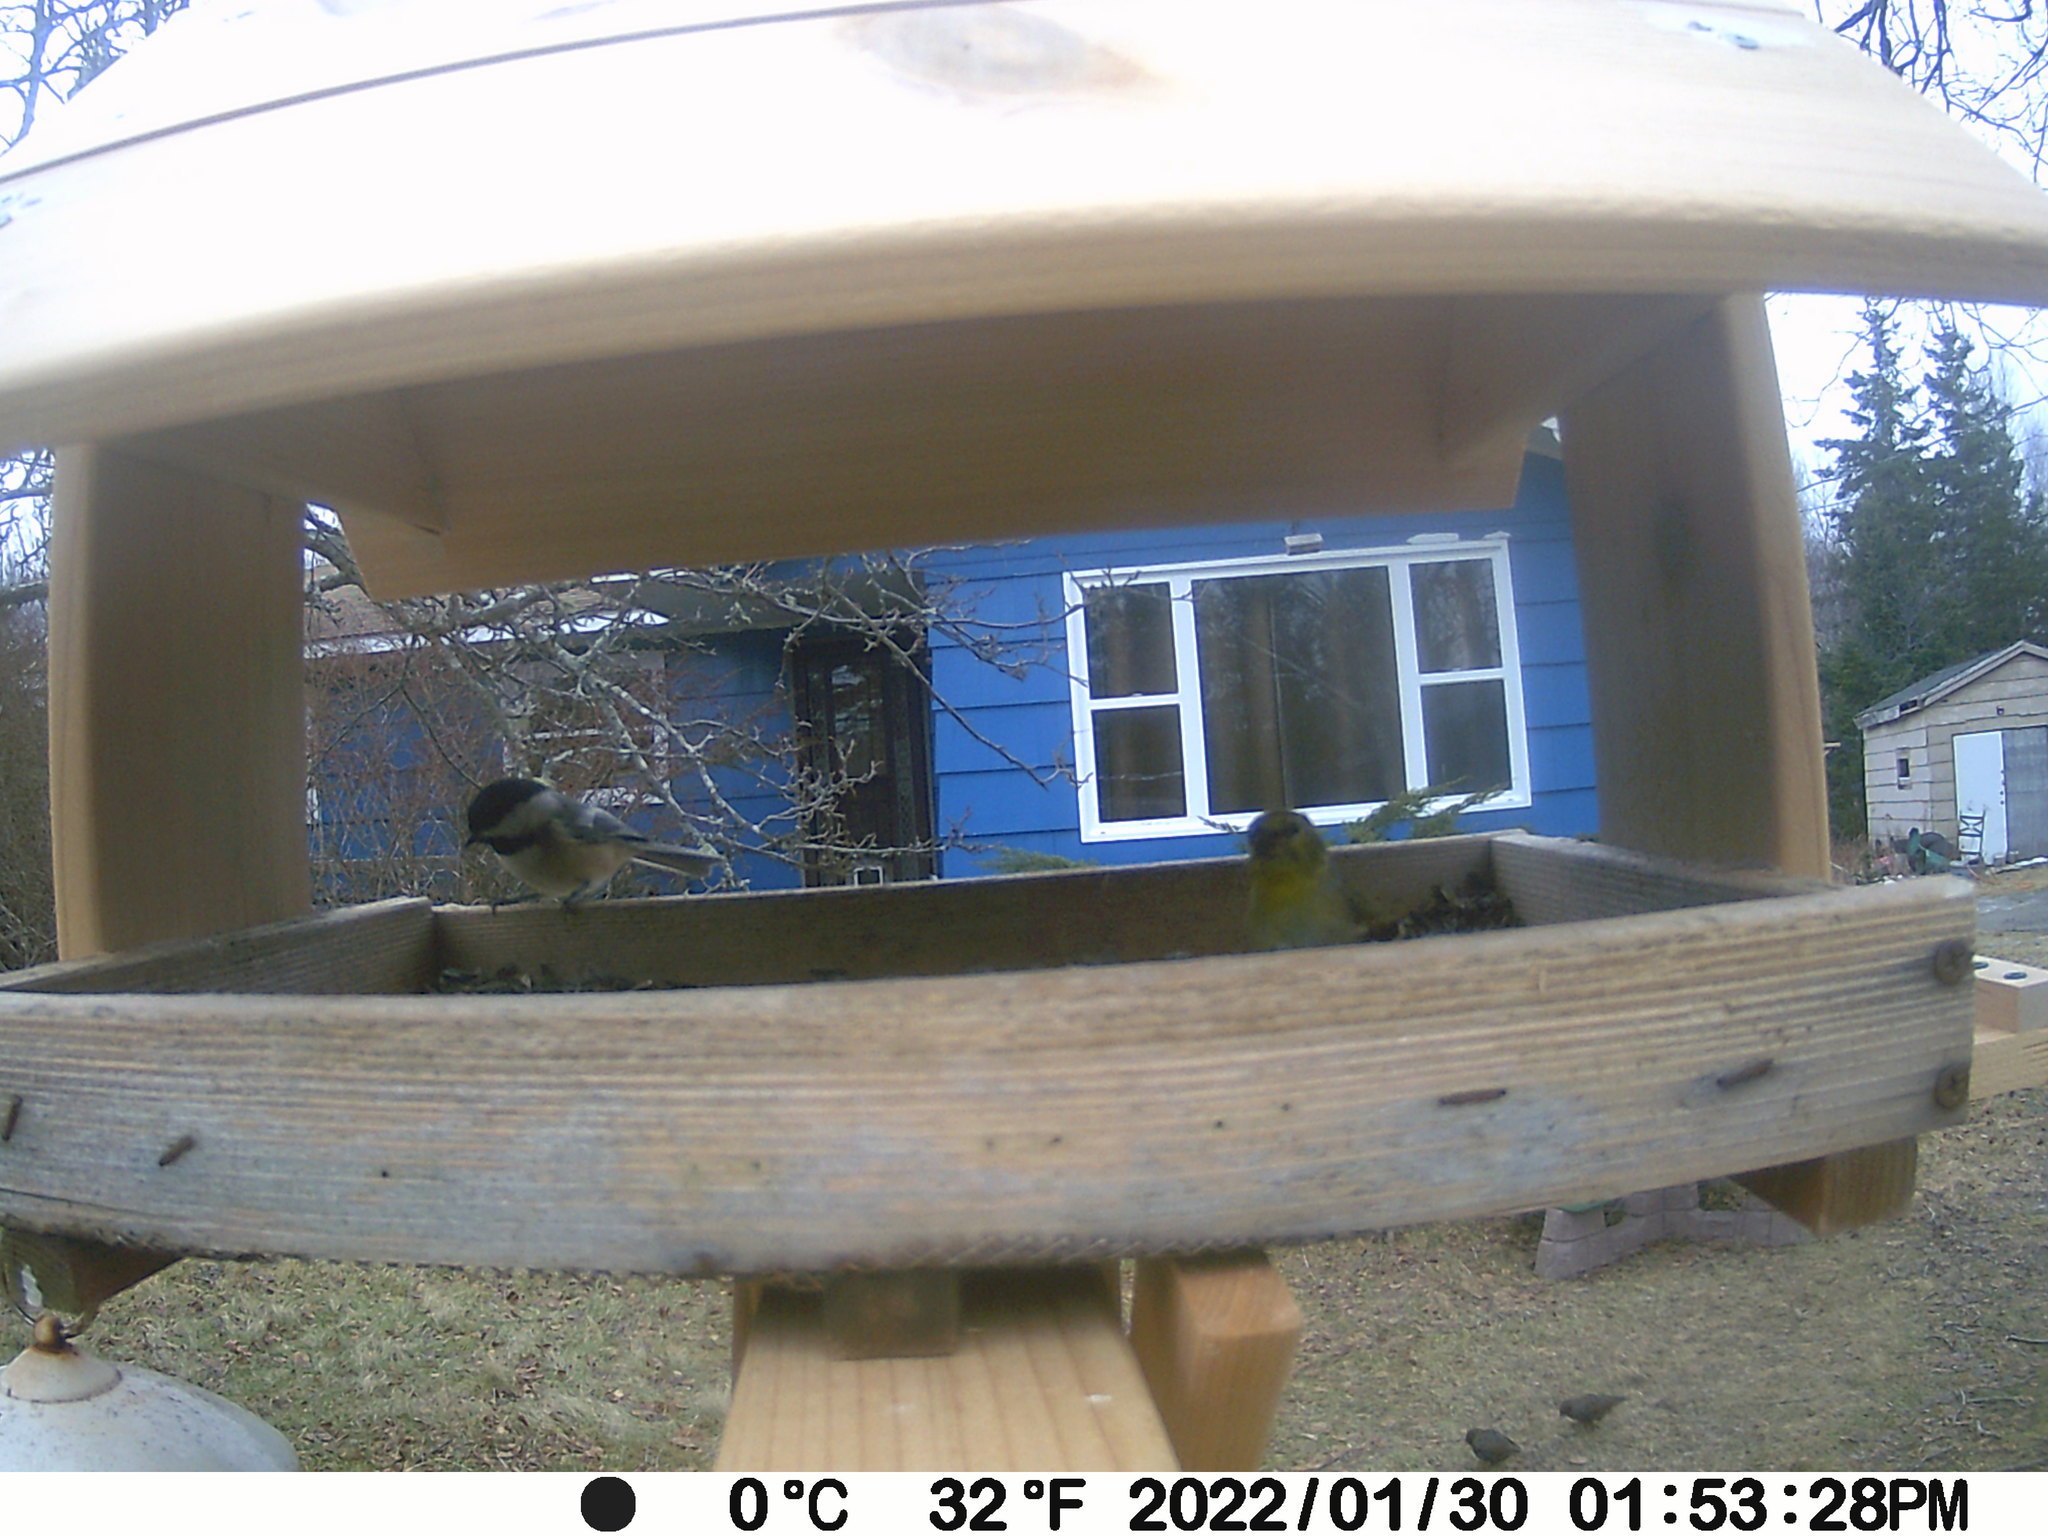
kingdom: Animalia
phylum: Chordata
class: Aves
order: Passeriformes
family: Sturnidae
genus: Sturnus
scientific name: Sturnus vulgaris
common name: Common starling
